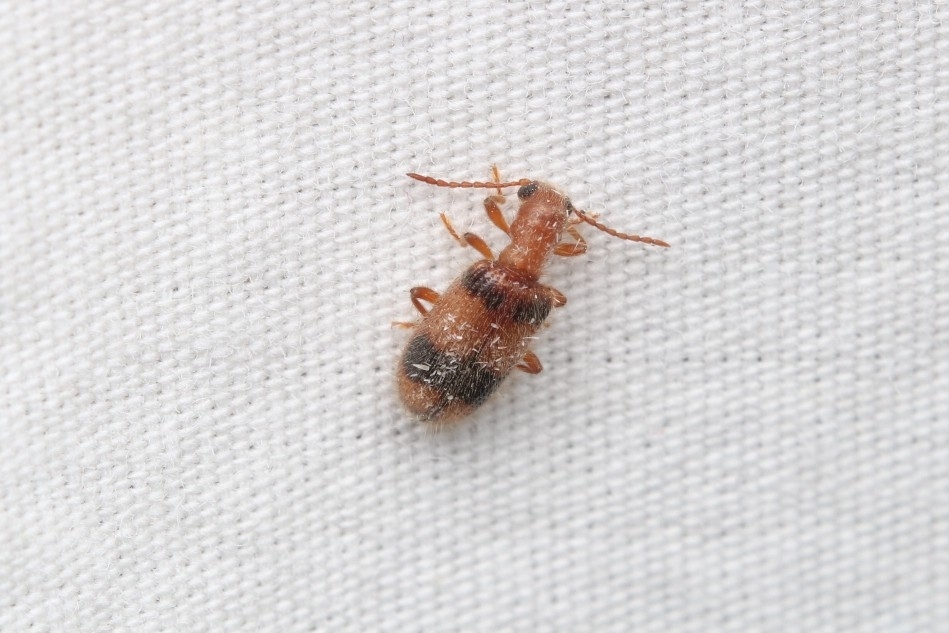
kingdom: Animalia
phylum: Arthropoda
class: Insecta
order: Coleoptera
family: Cleridae
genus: Cymatodera
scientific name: Cymatodera puncticollis
